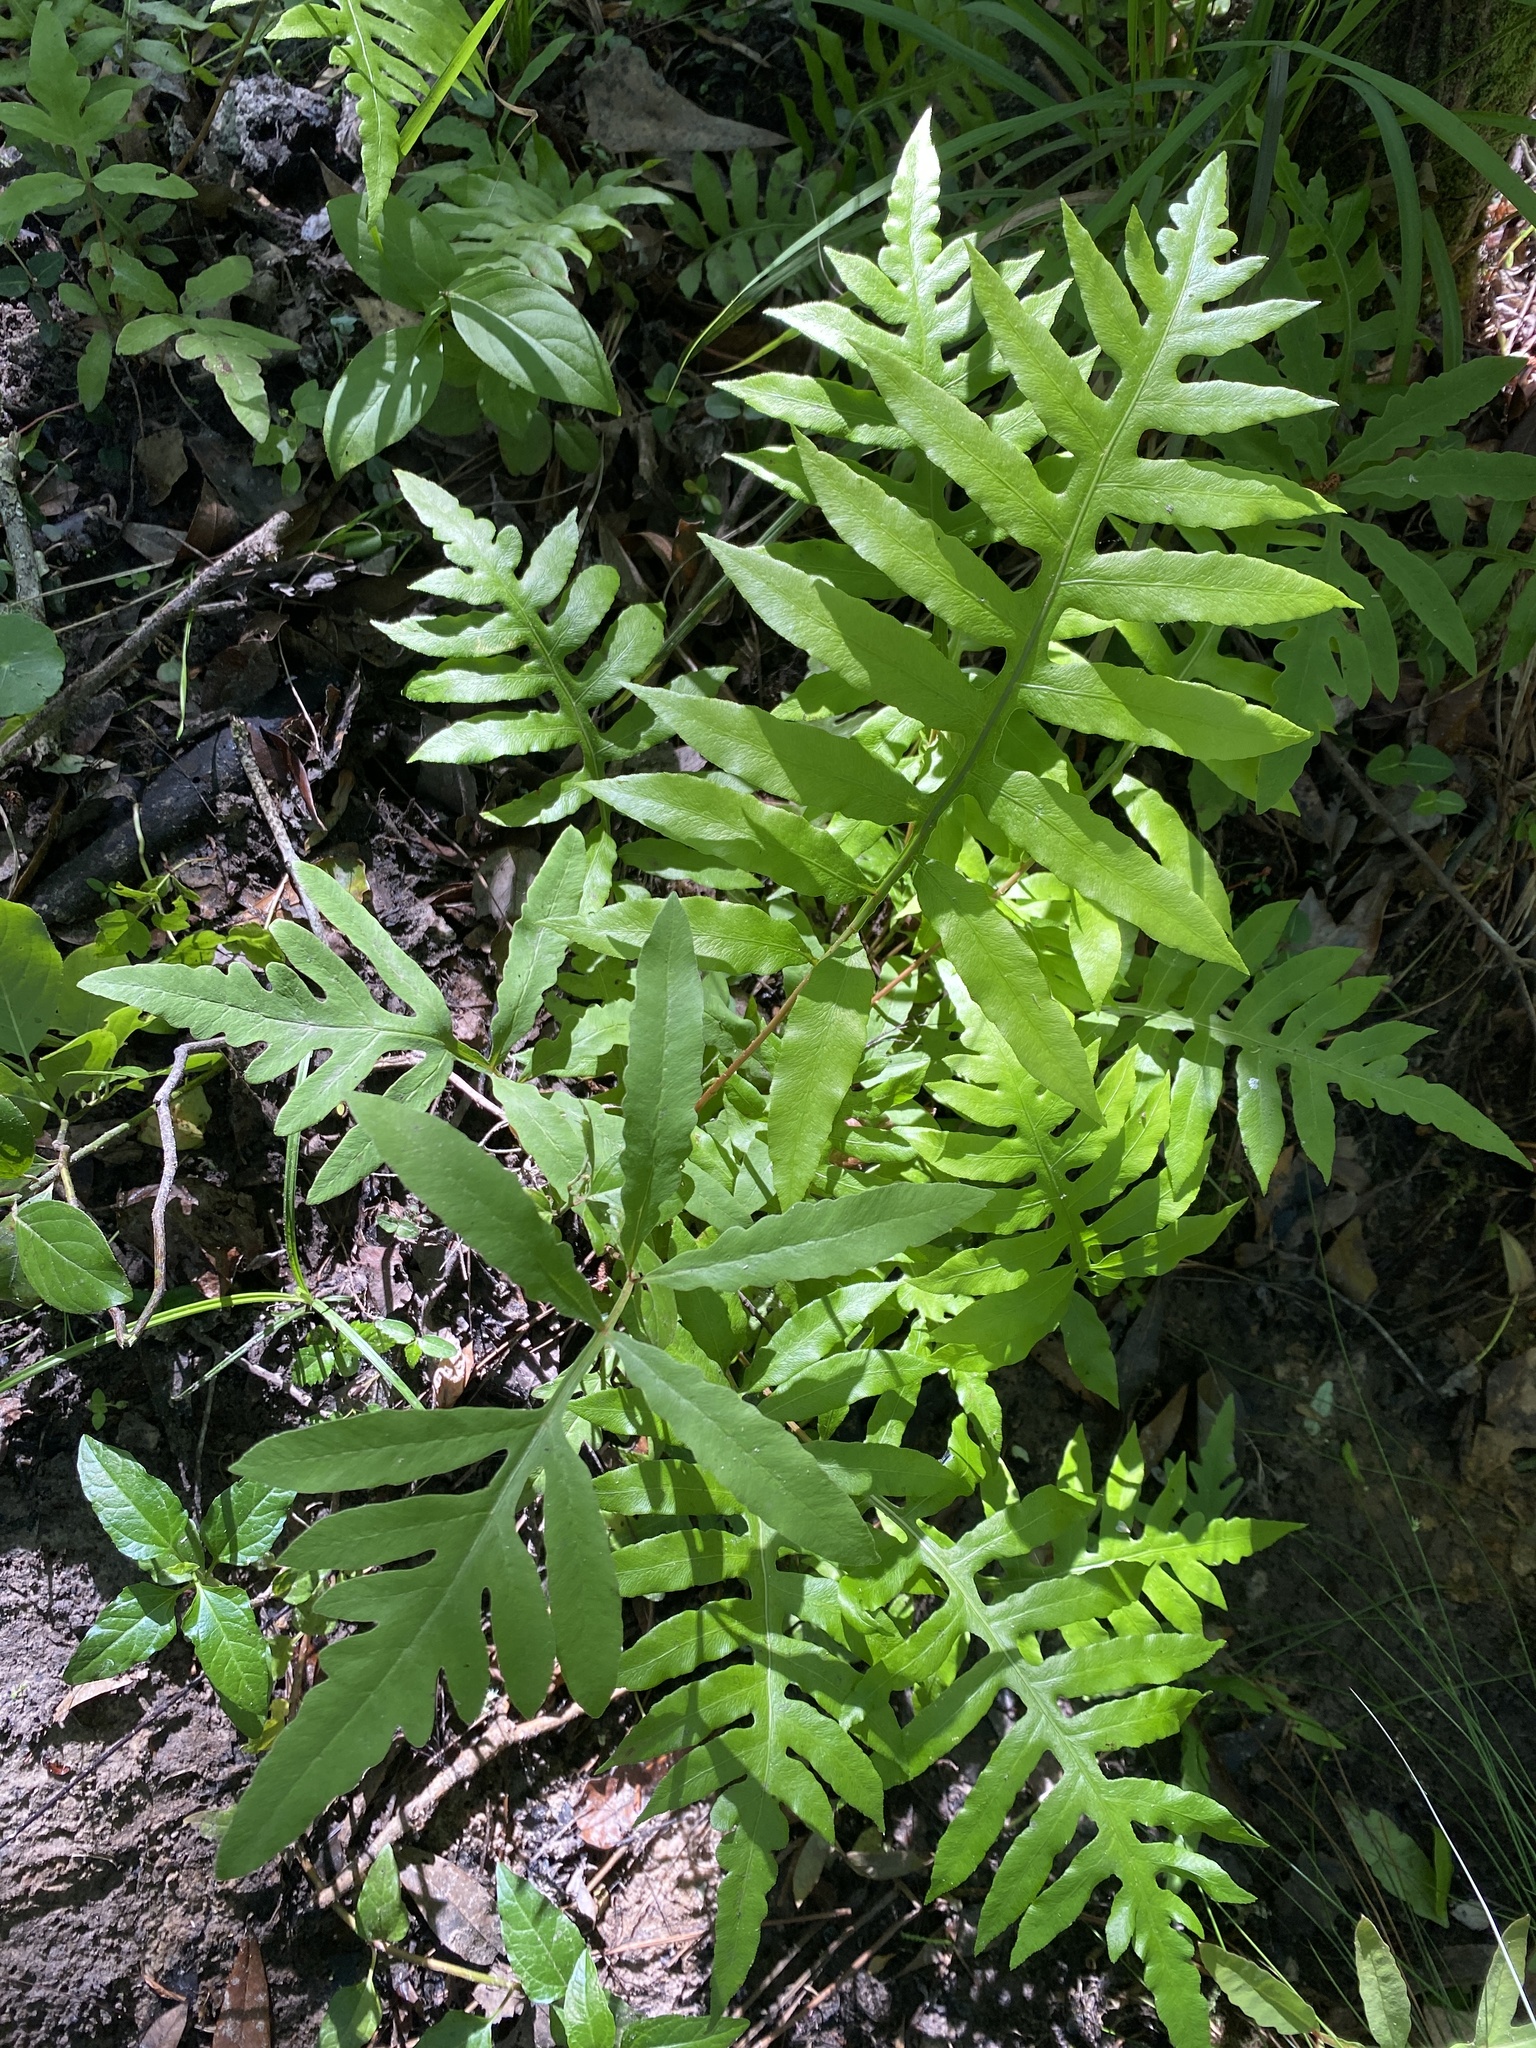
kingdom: Plantae
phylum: Tracheophyta
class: Polypodiopsida
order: Polypodiales
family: Blechnaceae
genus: Lorinseria
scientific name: Lorinseria areolata
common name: Dwarf chain fern
